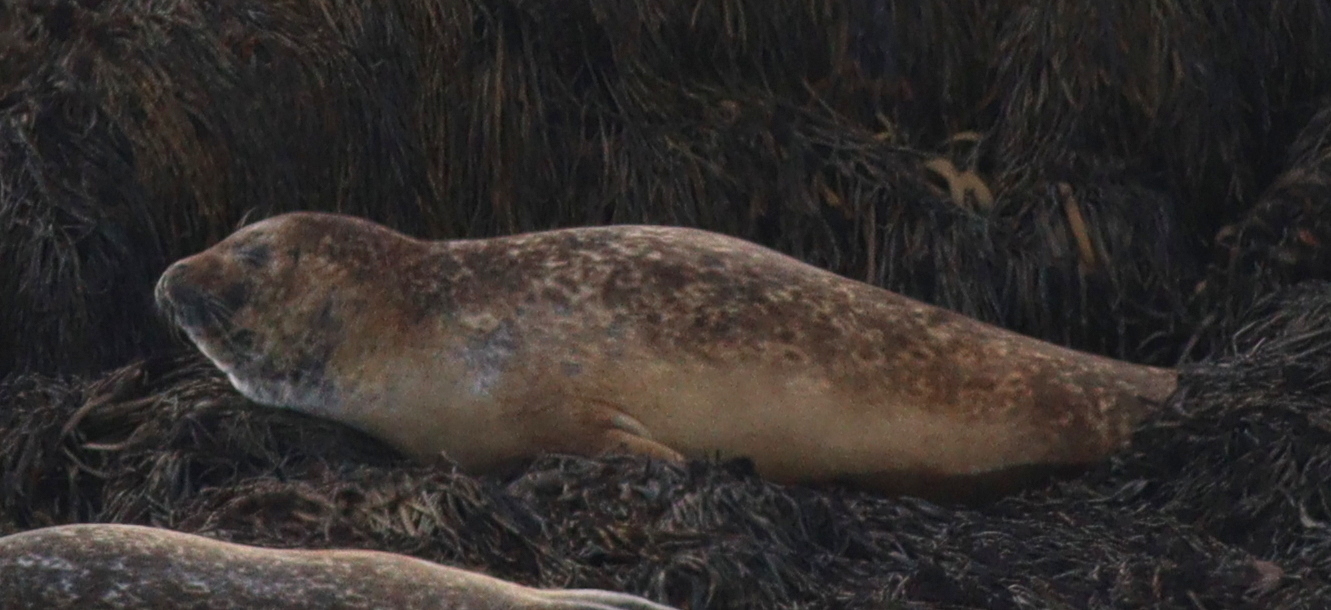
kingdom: Animalia
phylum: Chordata
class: Mammalia
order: Carnivora
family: Phocidae
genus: Phoca
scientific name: Phoca vitulina
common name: Harbor seal
